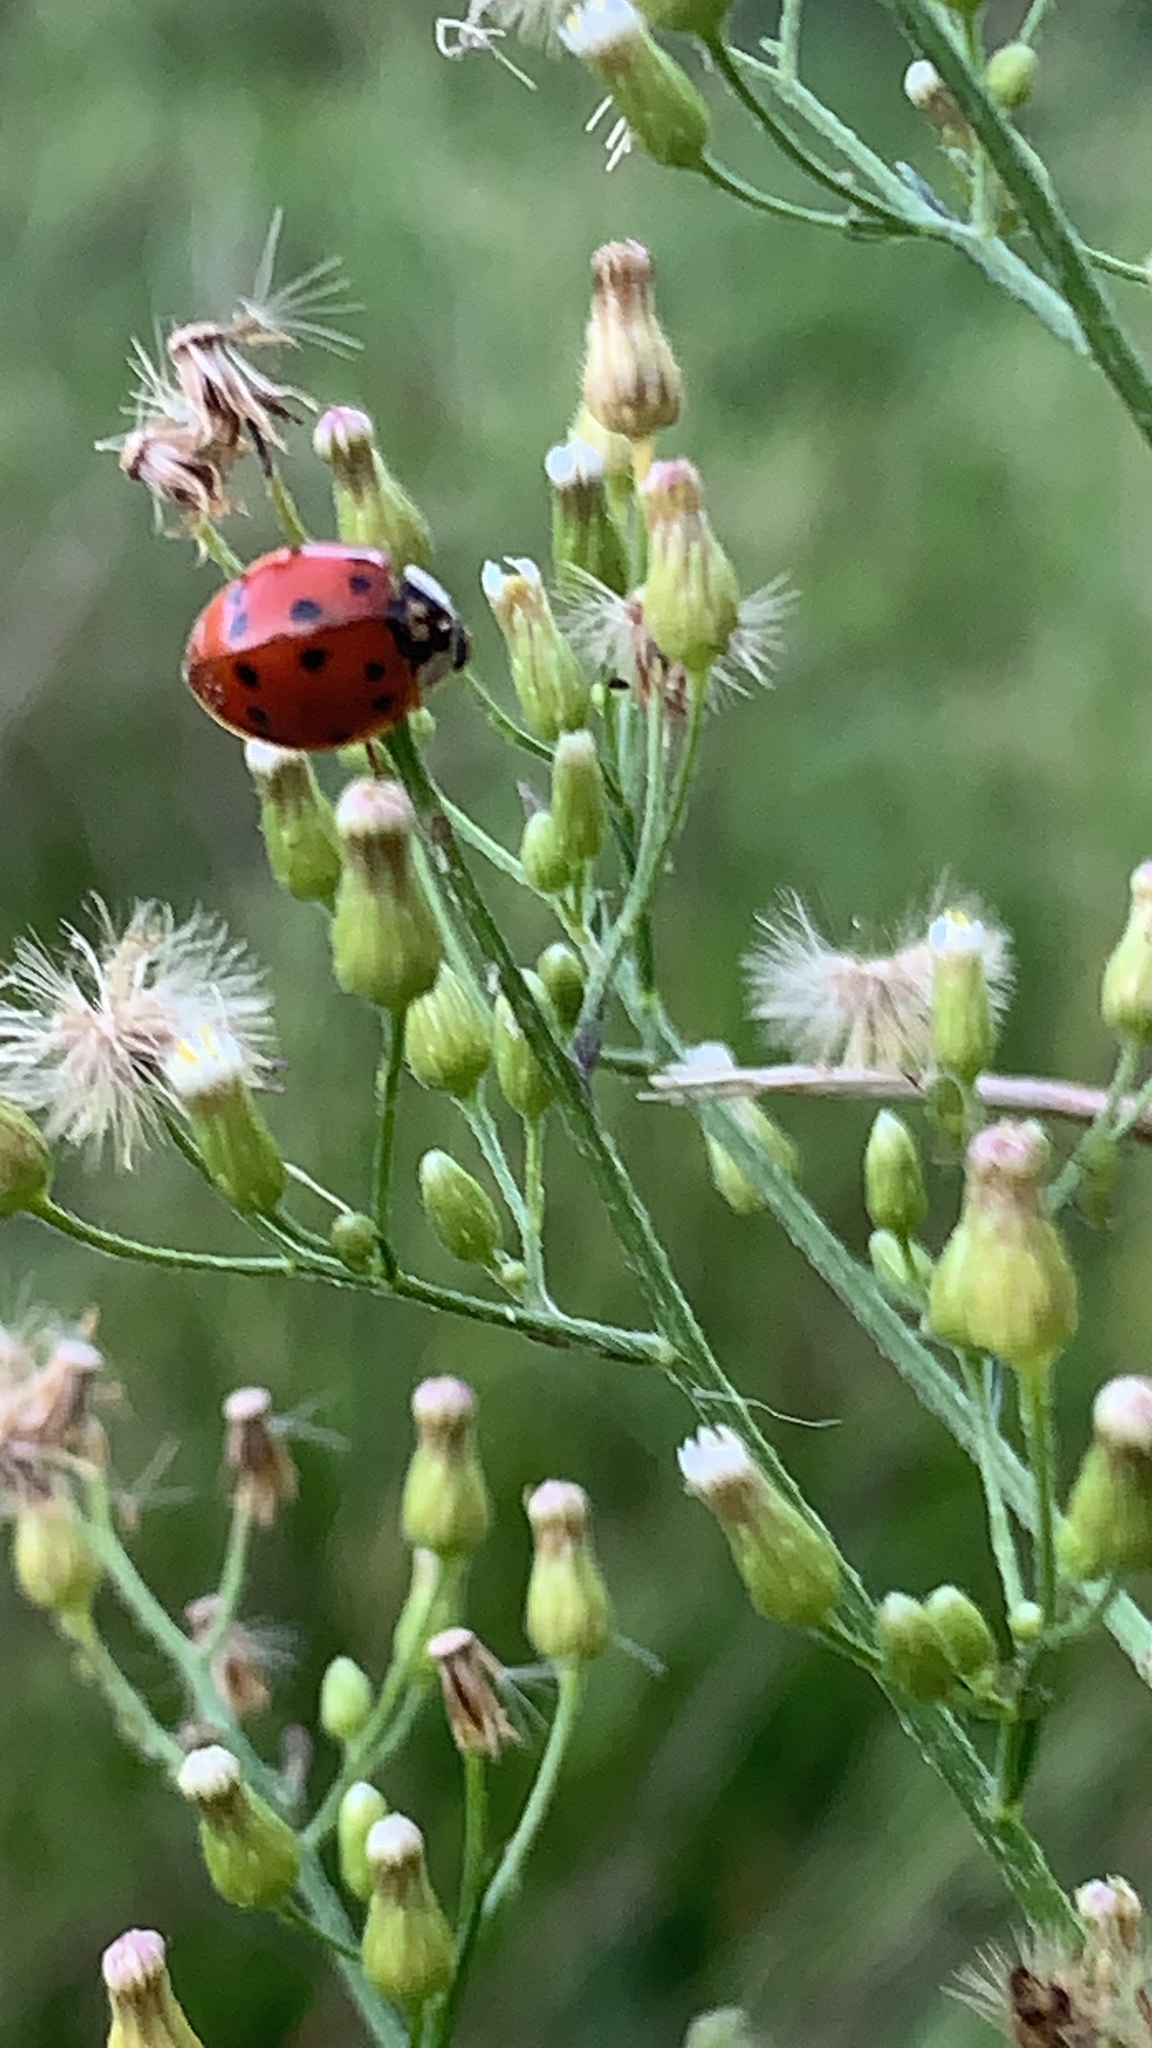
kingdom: Animalia
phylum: Arthropoda
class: Insecta
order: Coleoptera
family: Coccinellidae
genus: Harmonia
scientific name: Harmonia axyridis
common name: Harlequin ladybird
